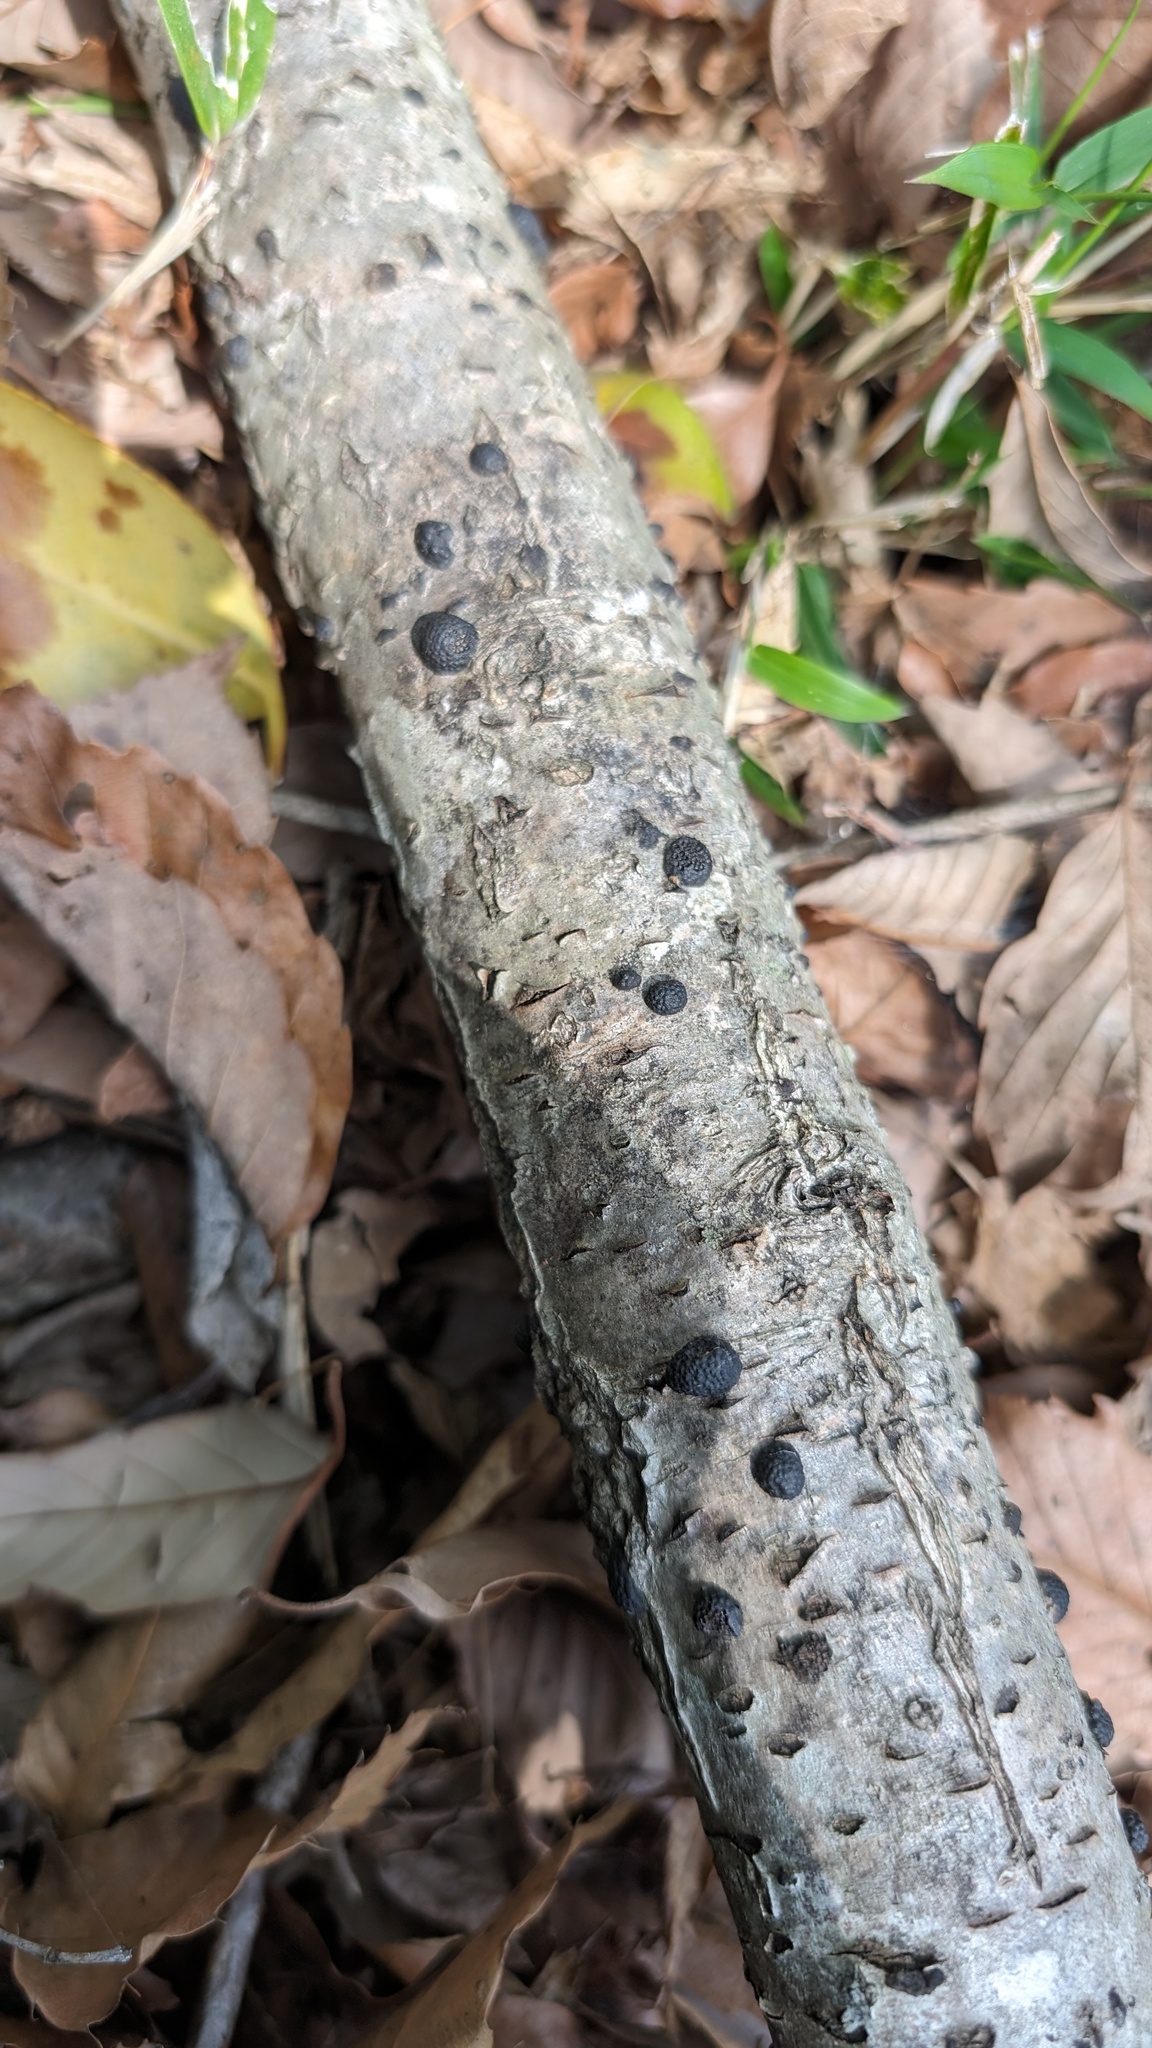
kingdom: Fungi
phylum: Ascomycota
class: Sordariomycetes
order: Xylariales
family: Hypoxylaceae
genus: Annulohypoxylon
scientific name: Annulohypoxylon truncatum
